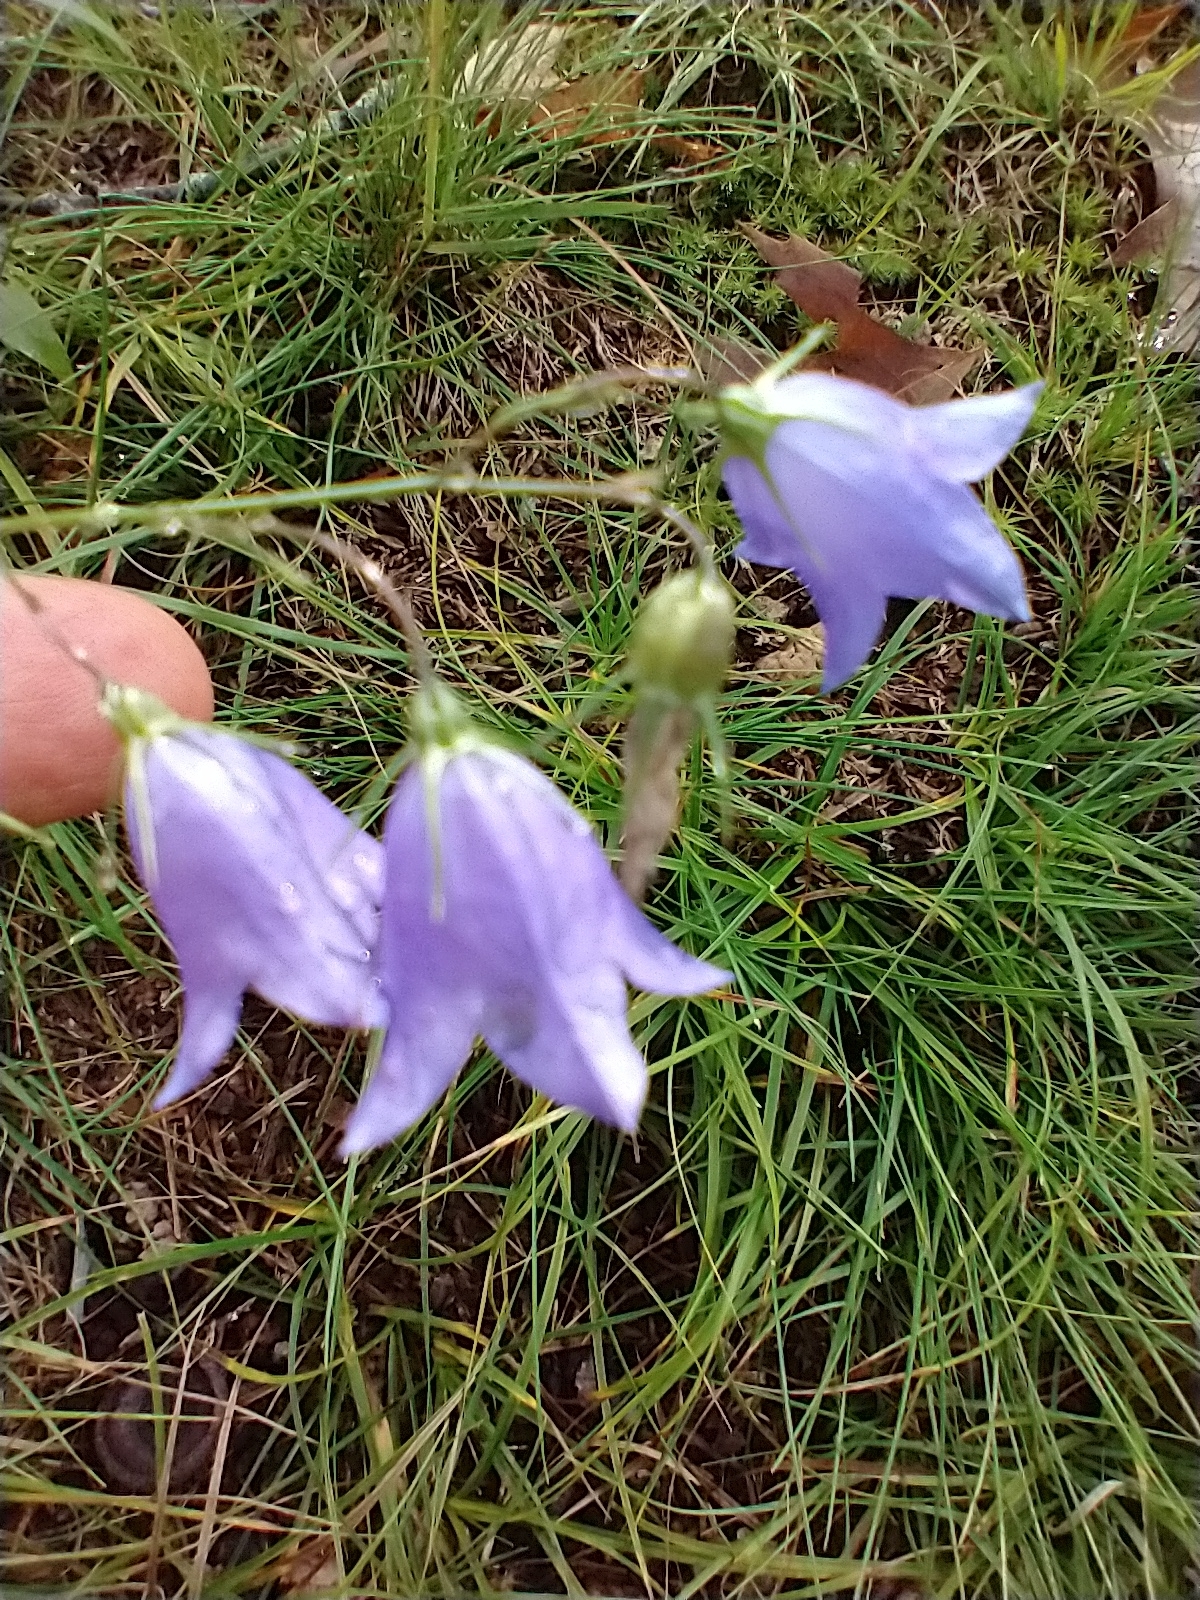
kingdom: Plantae
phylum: Tracheophyta
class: Magnoliopsida
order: Asterales
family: Campanulaceae
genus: Campanula
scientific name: Campanula intercedens
